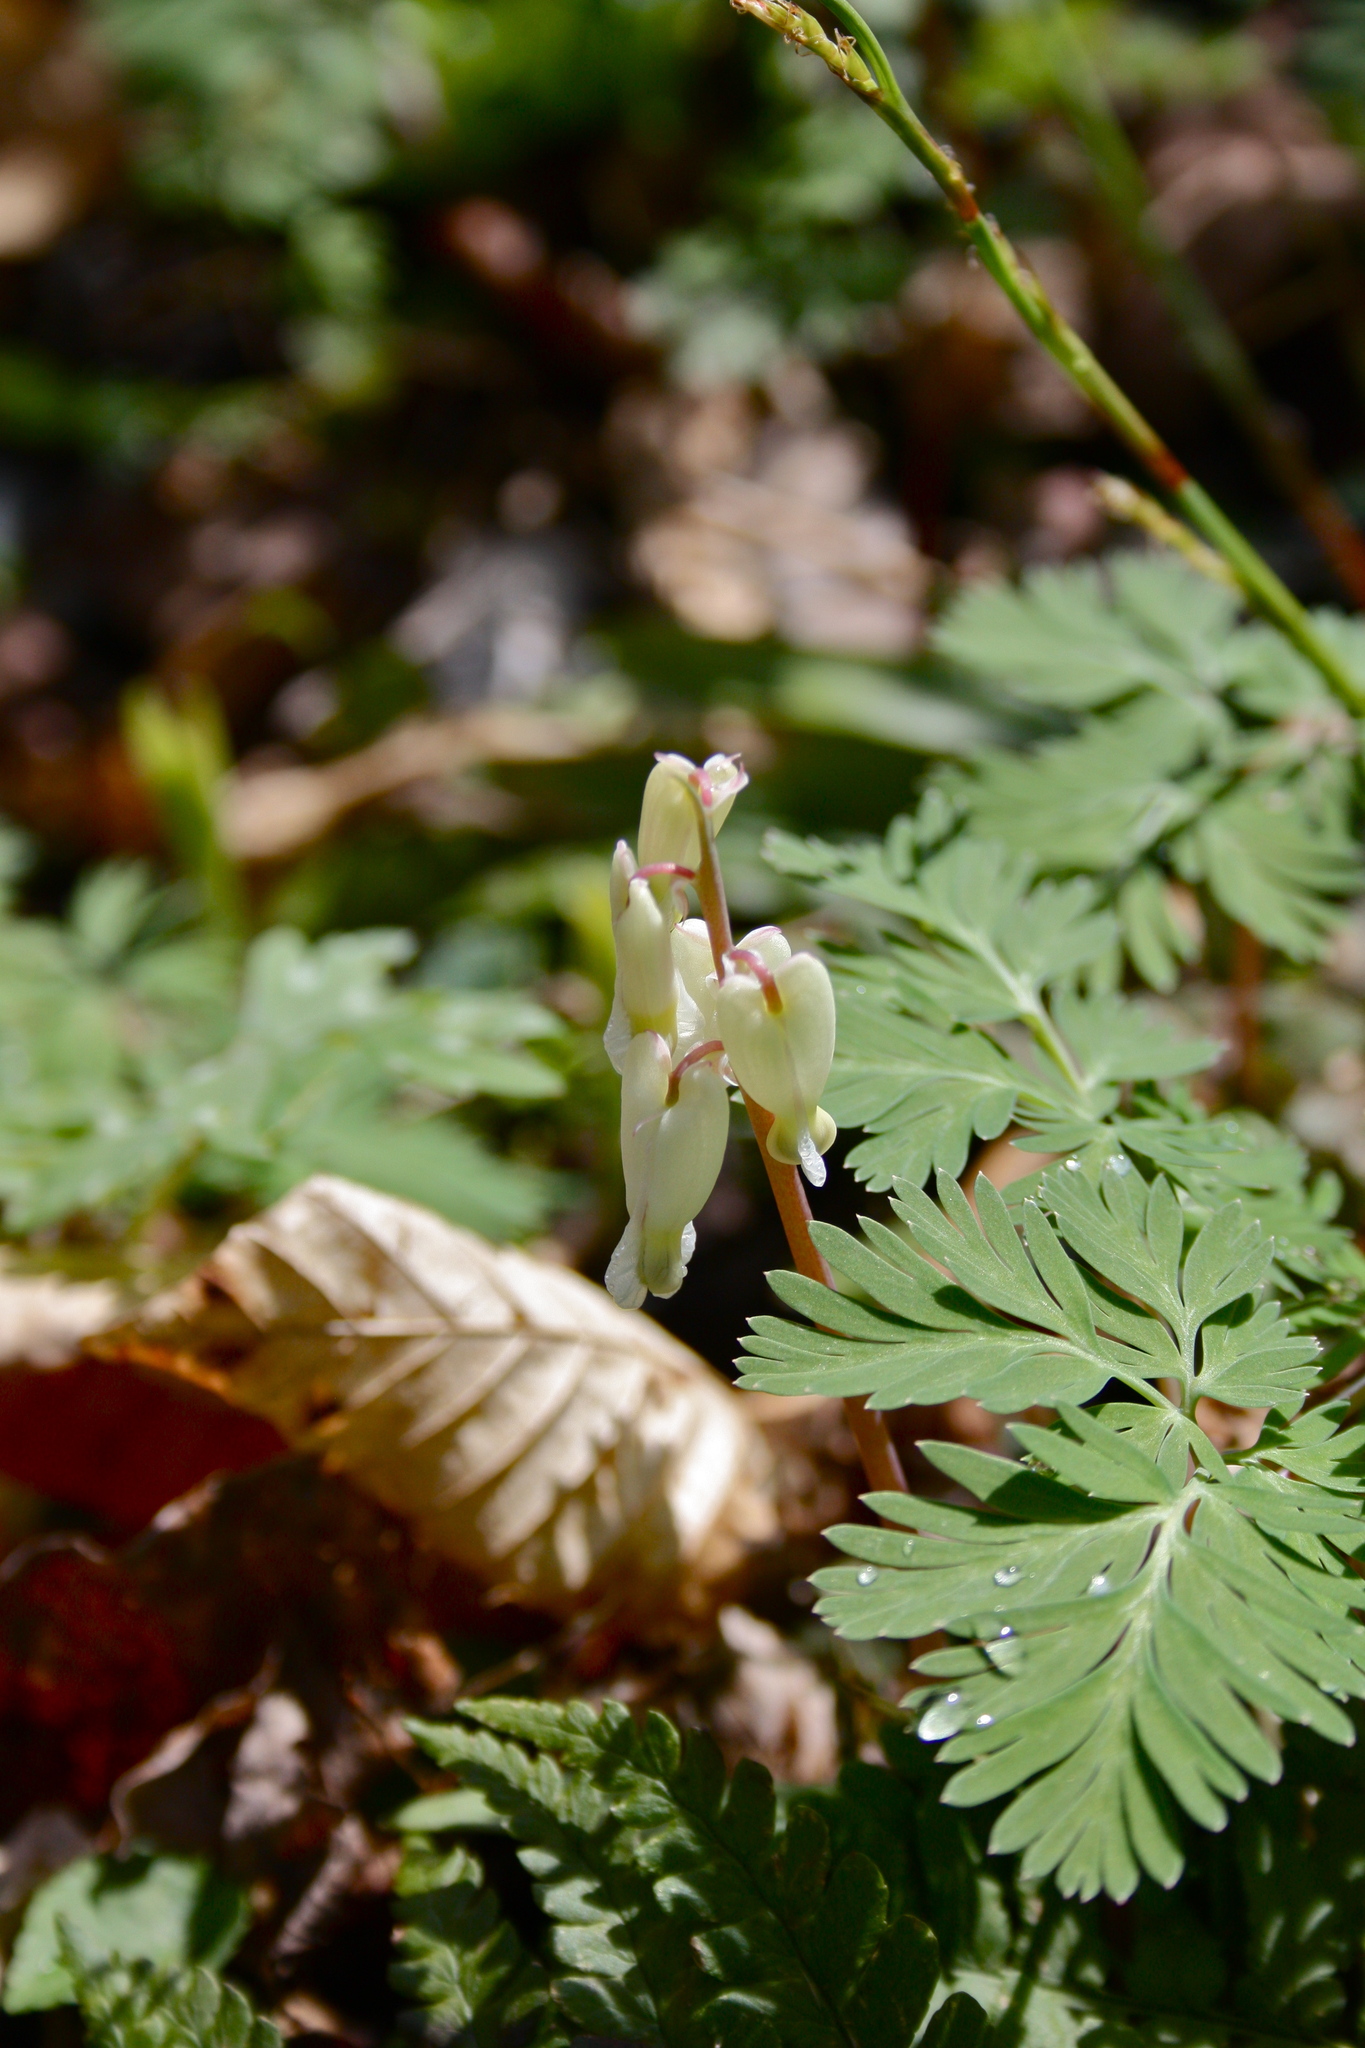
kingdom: Plantae
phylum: Tracheophyta
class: Magnoliopsida
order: Ranunculales
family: Papaveraceae
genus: Dicentra
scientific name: Dicentra canadensis
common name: Squirrel-corn
